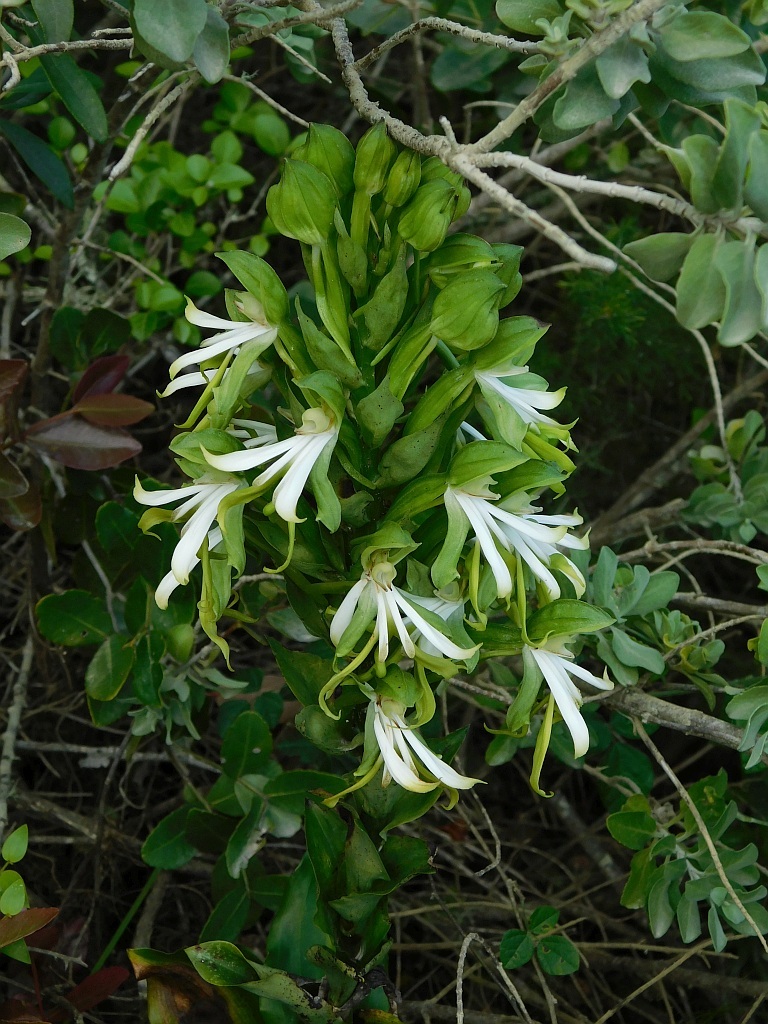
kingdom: Plantae
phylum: Tracheophyta
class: Liliopsida
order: Asparagales
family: Orchidaceae
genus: Bonatea
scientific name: Bonatea speciosa
